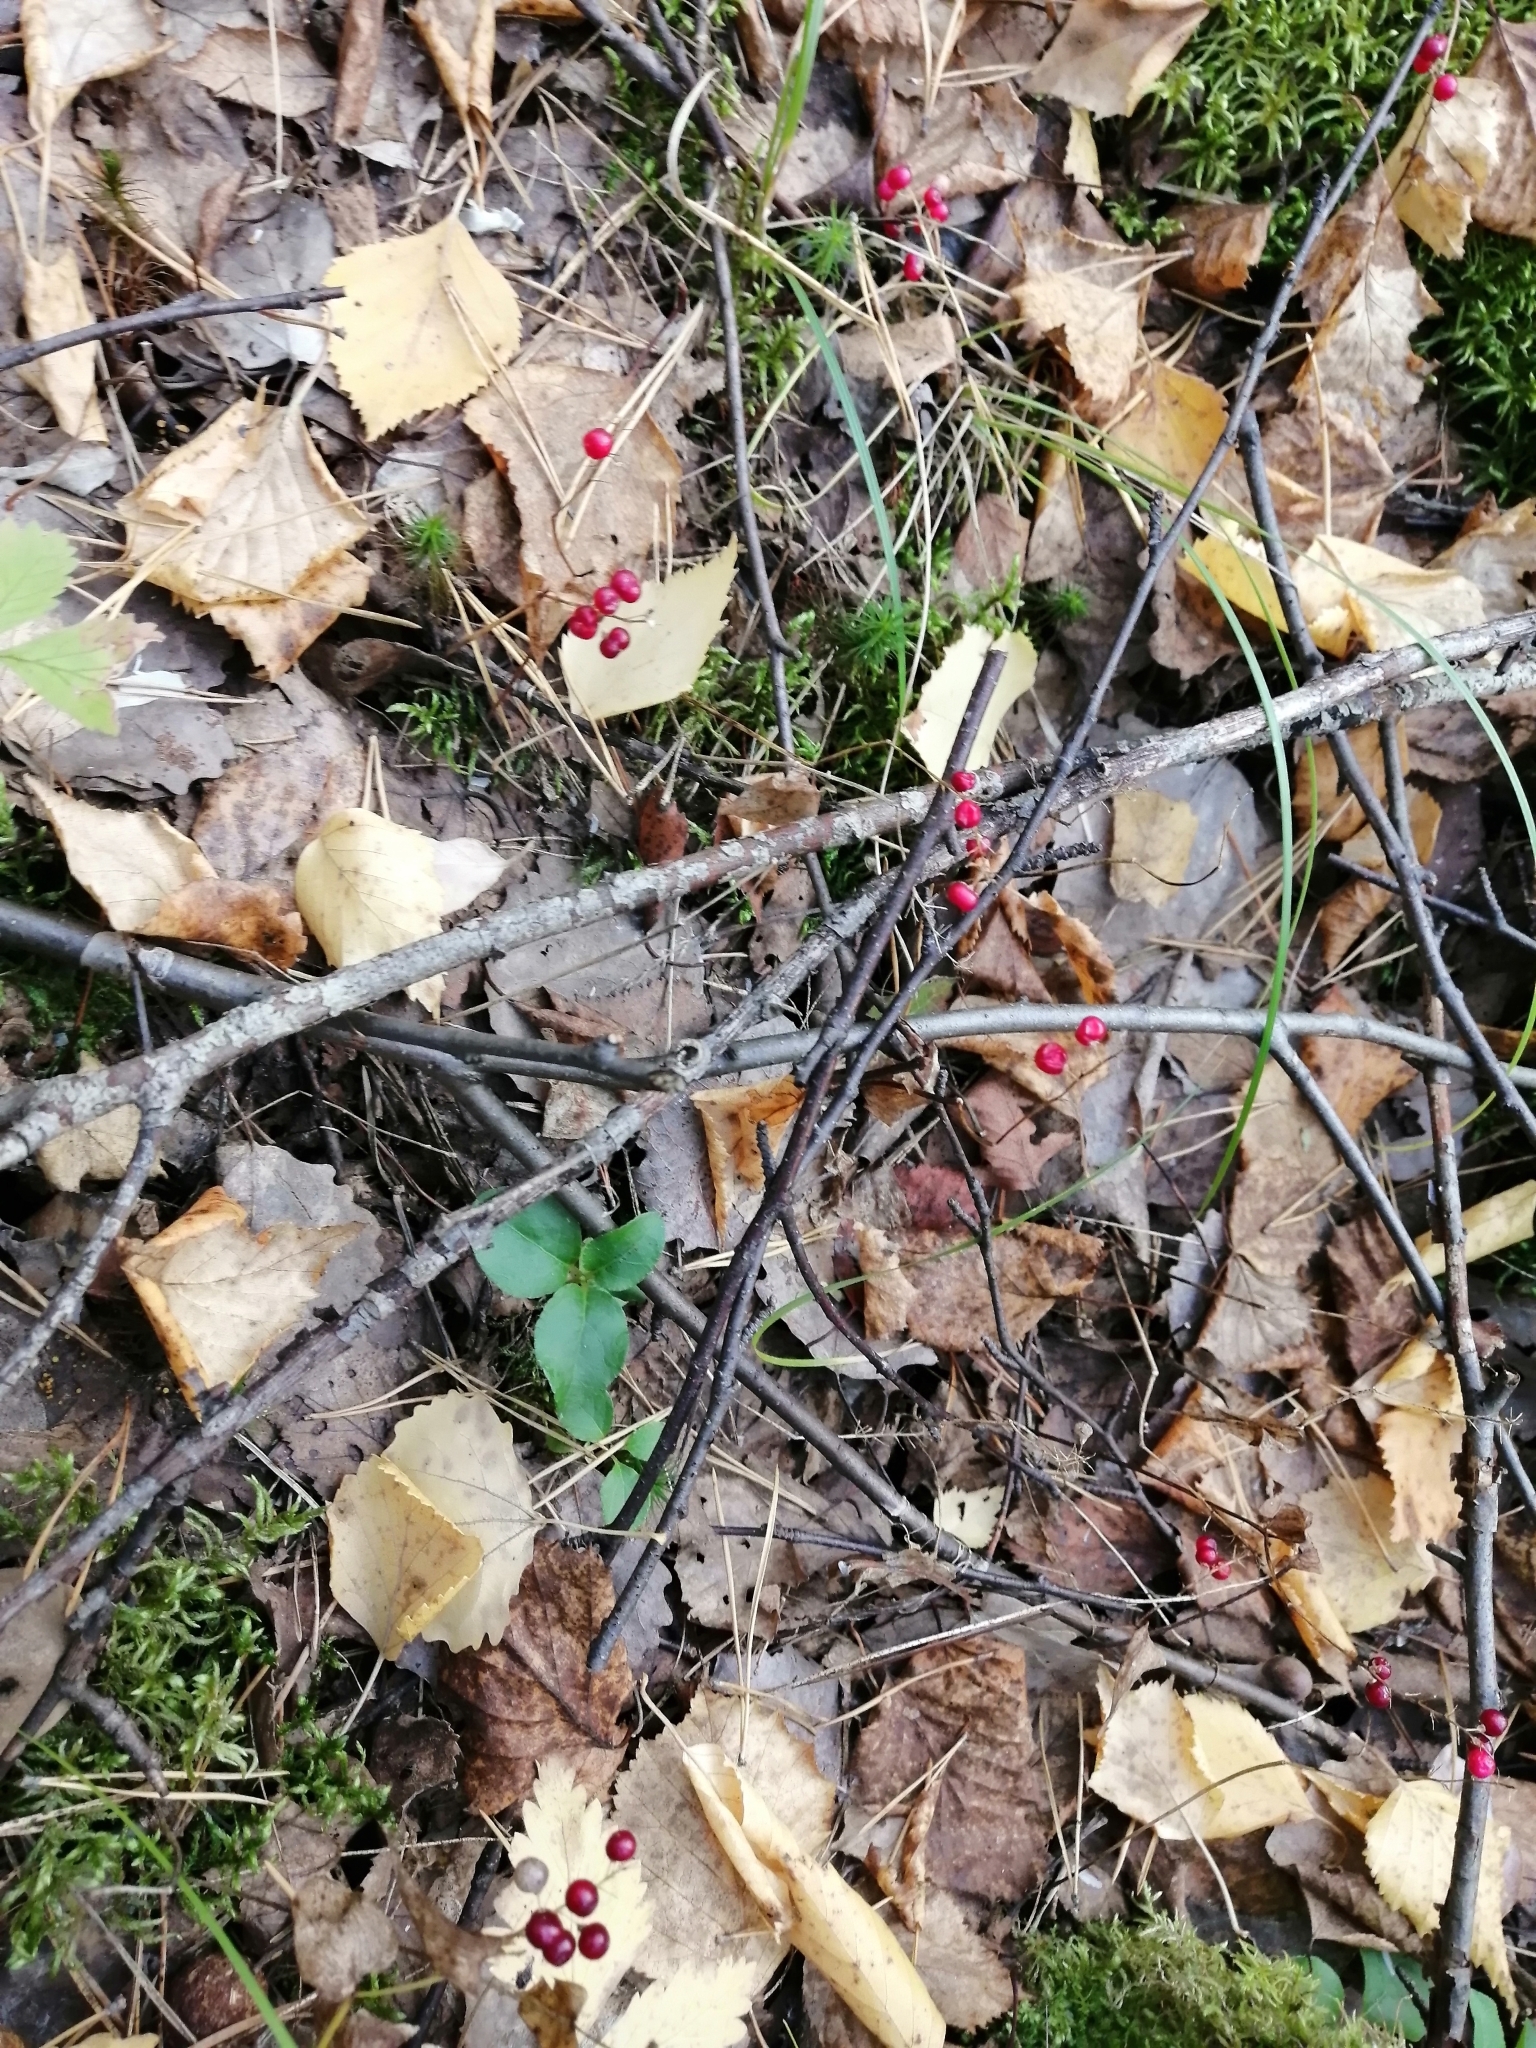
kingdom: Plantae
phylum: Tracheophyta
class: Liliopsida
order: Asparagales
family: Asparagaceae
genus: Maianthemum
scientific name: Maianthemum bifolium
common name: May lily
